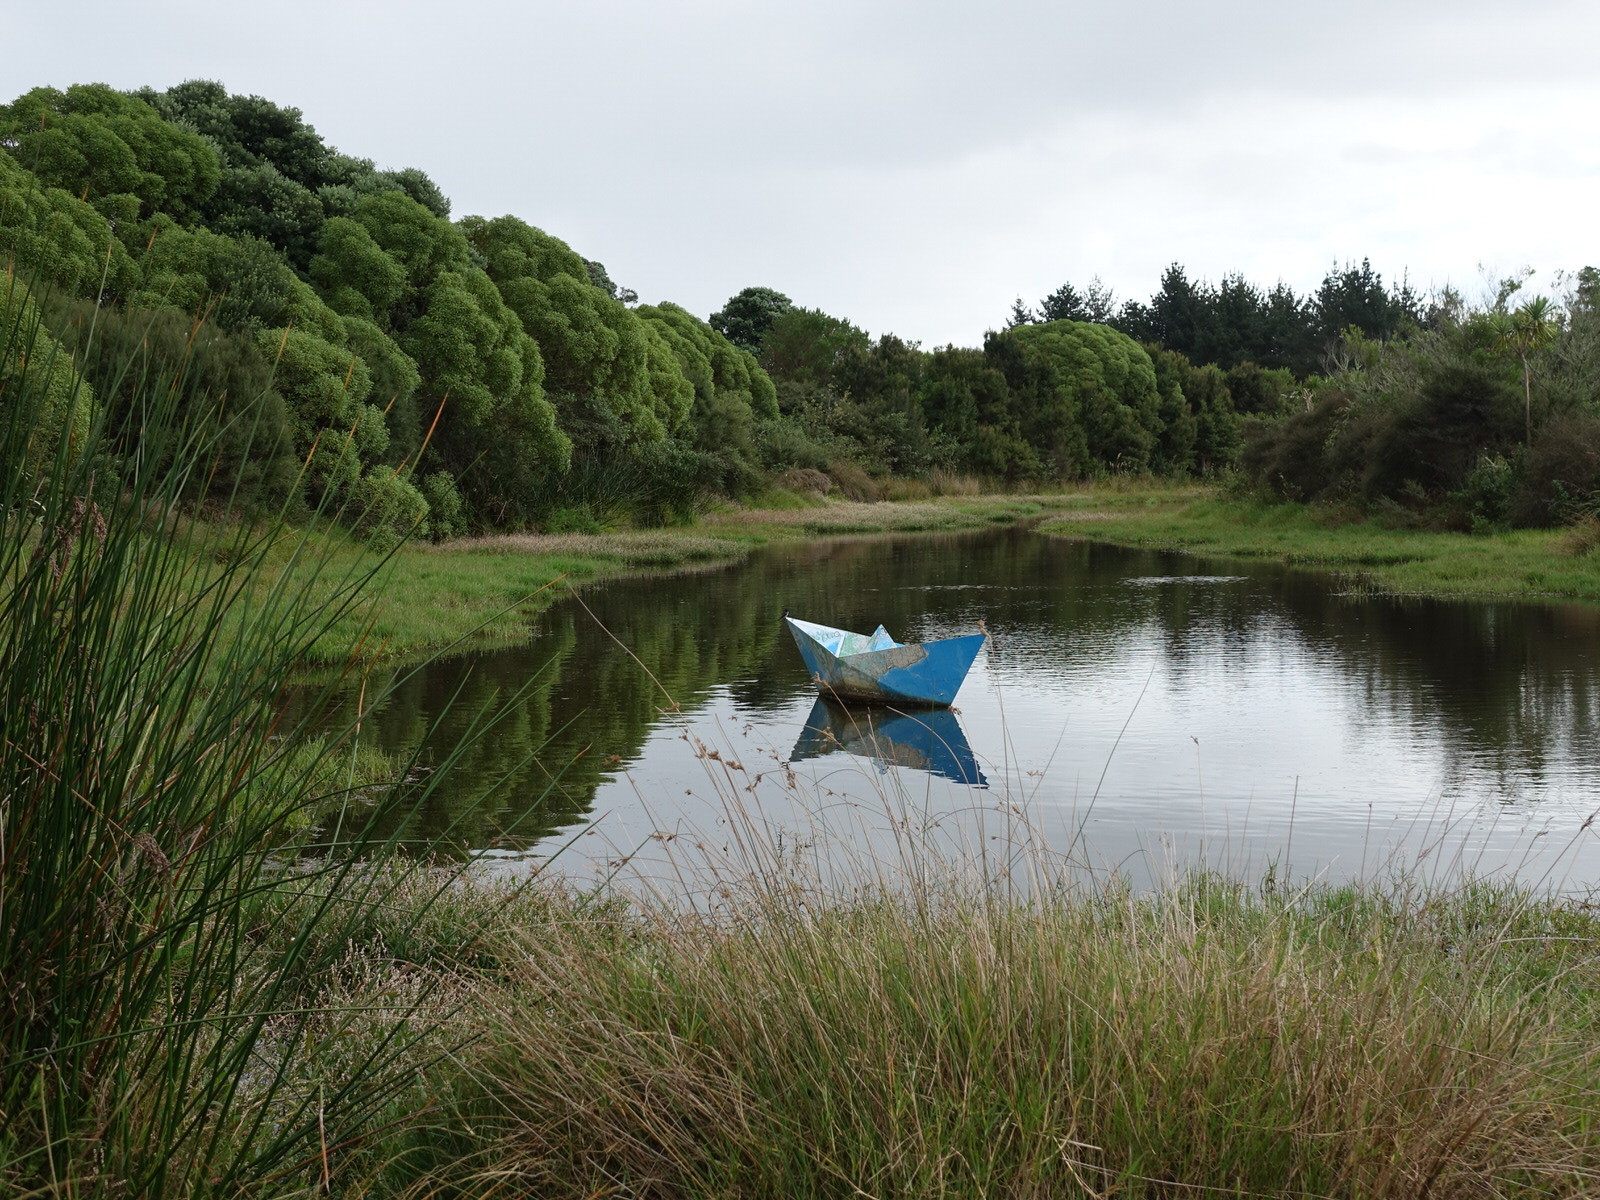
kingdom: Animalia
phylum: Chordata
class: Aves
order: Passeriformes
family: Hirundinidae
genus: Hirundo
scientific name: Hirundo neoxena
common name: Welcome swallow
